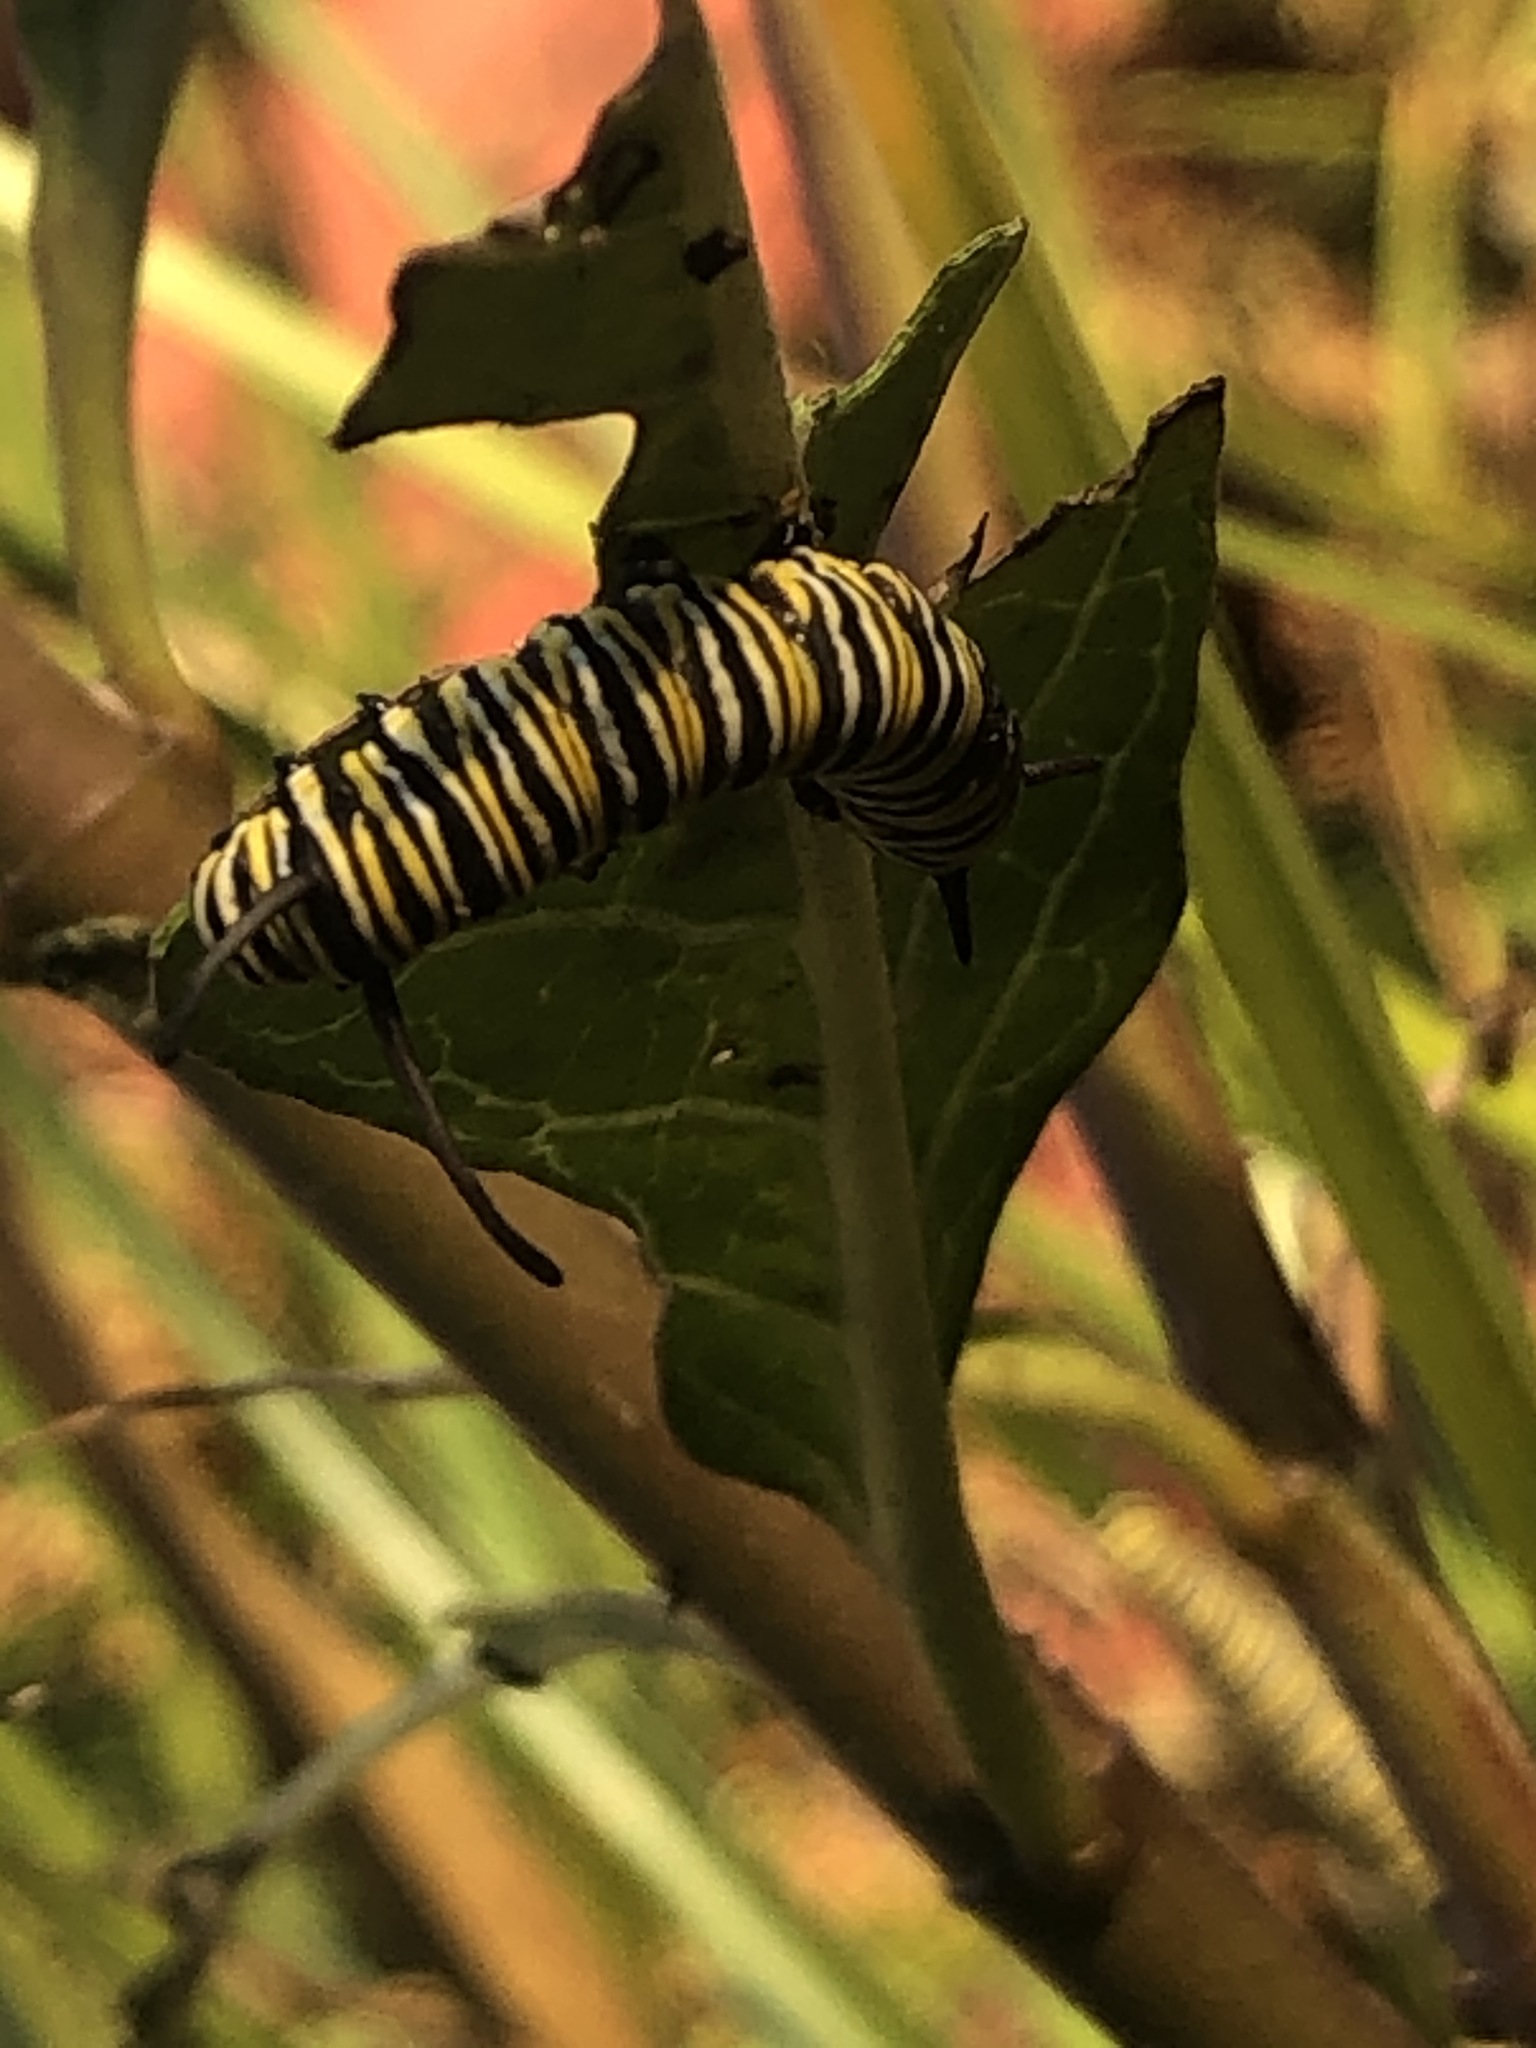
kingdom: Animalia
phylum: Arthropoda
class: Insecta
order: Lepidoptera
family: Nymphalidae
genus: Danaus
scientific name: Danaus plexippus
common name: Monarch
